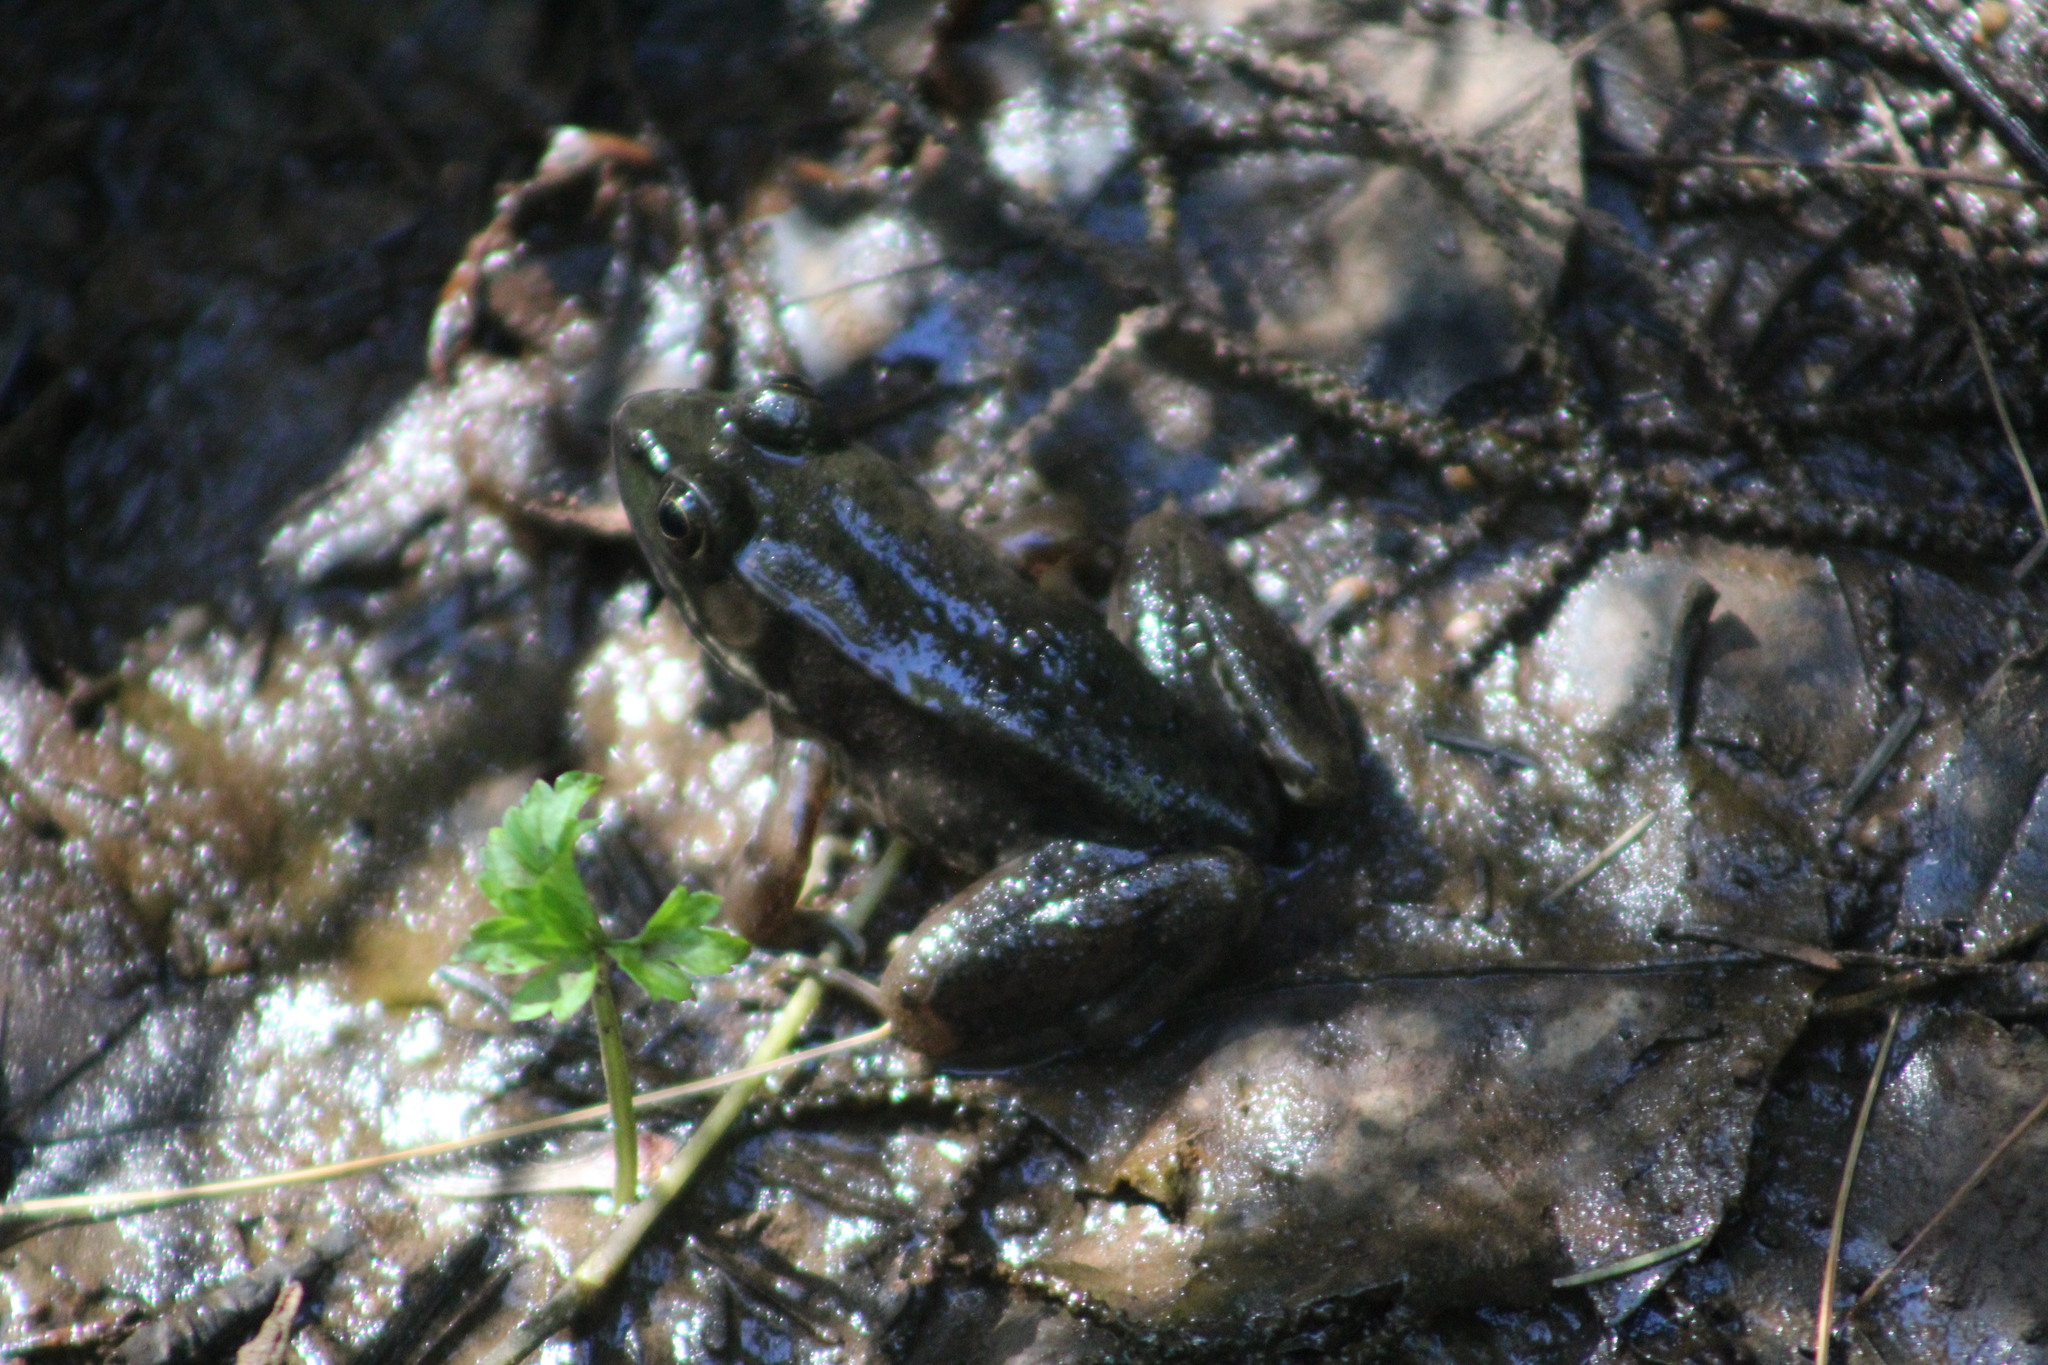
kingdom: Animalia
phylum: Chordata
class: Amphibia
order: Anura
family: Ranidae
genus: Lithobates
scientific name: Lithobates clamitans
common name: Green frog
